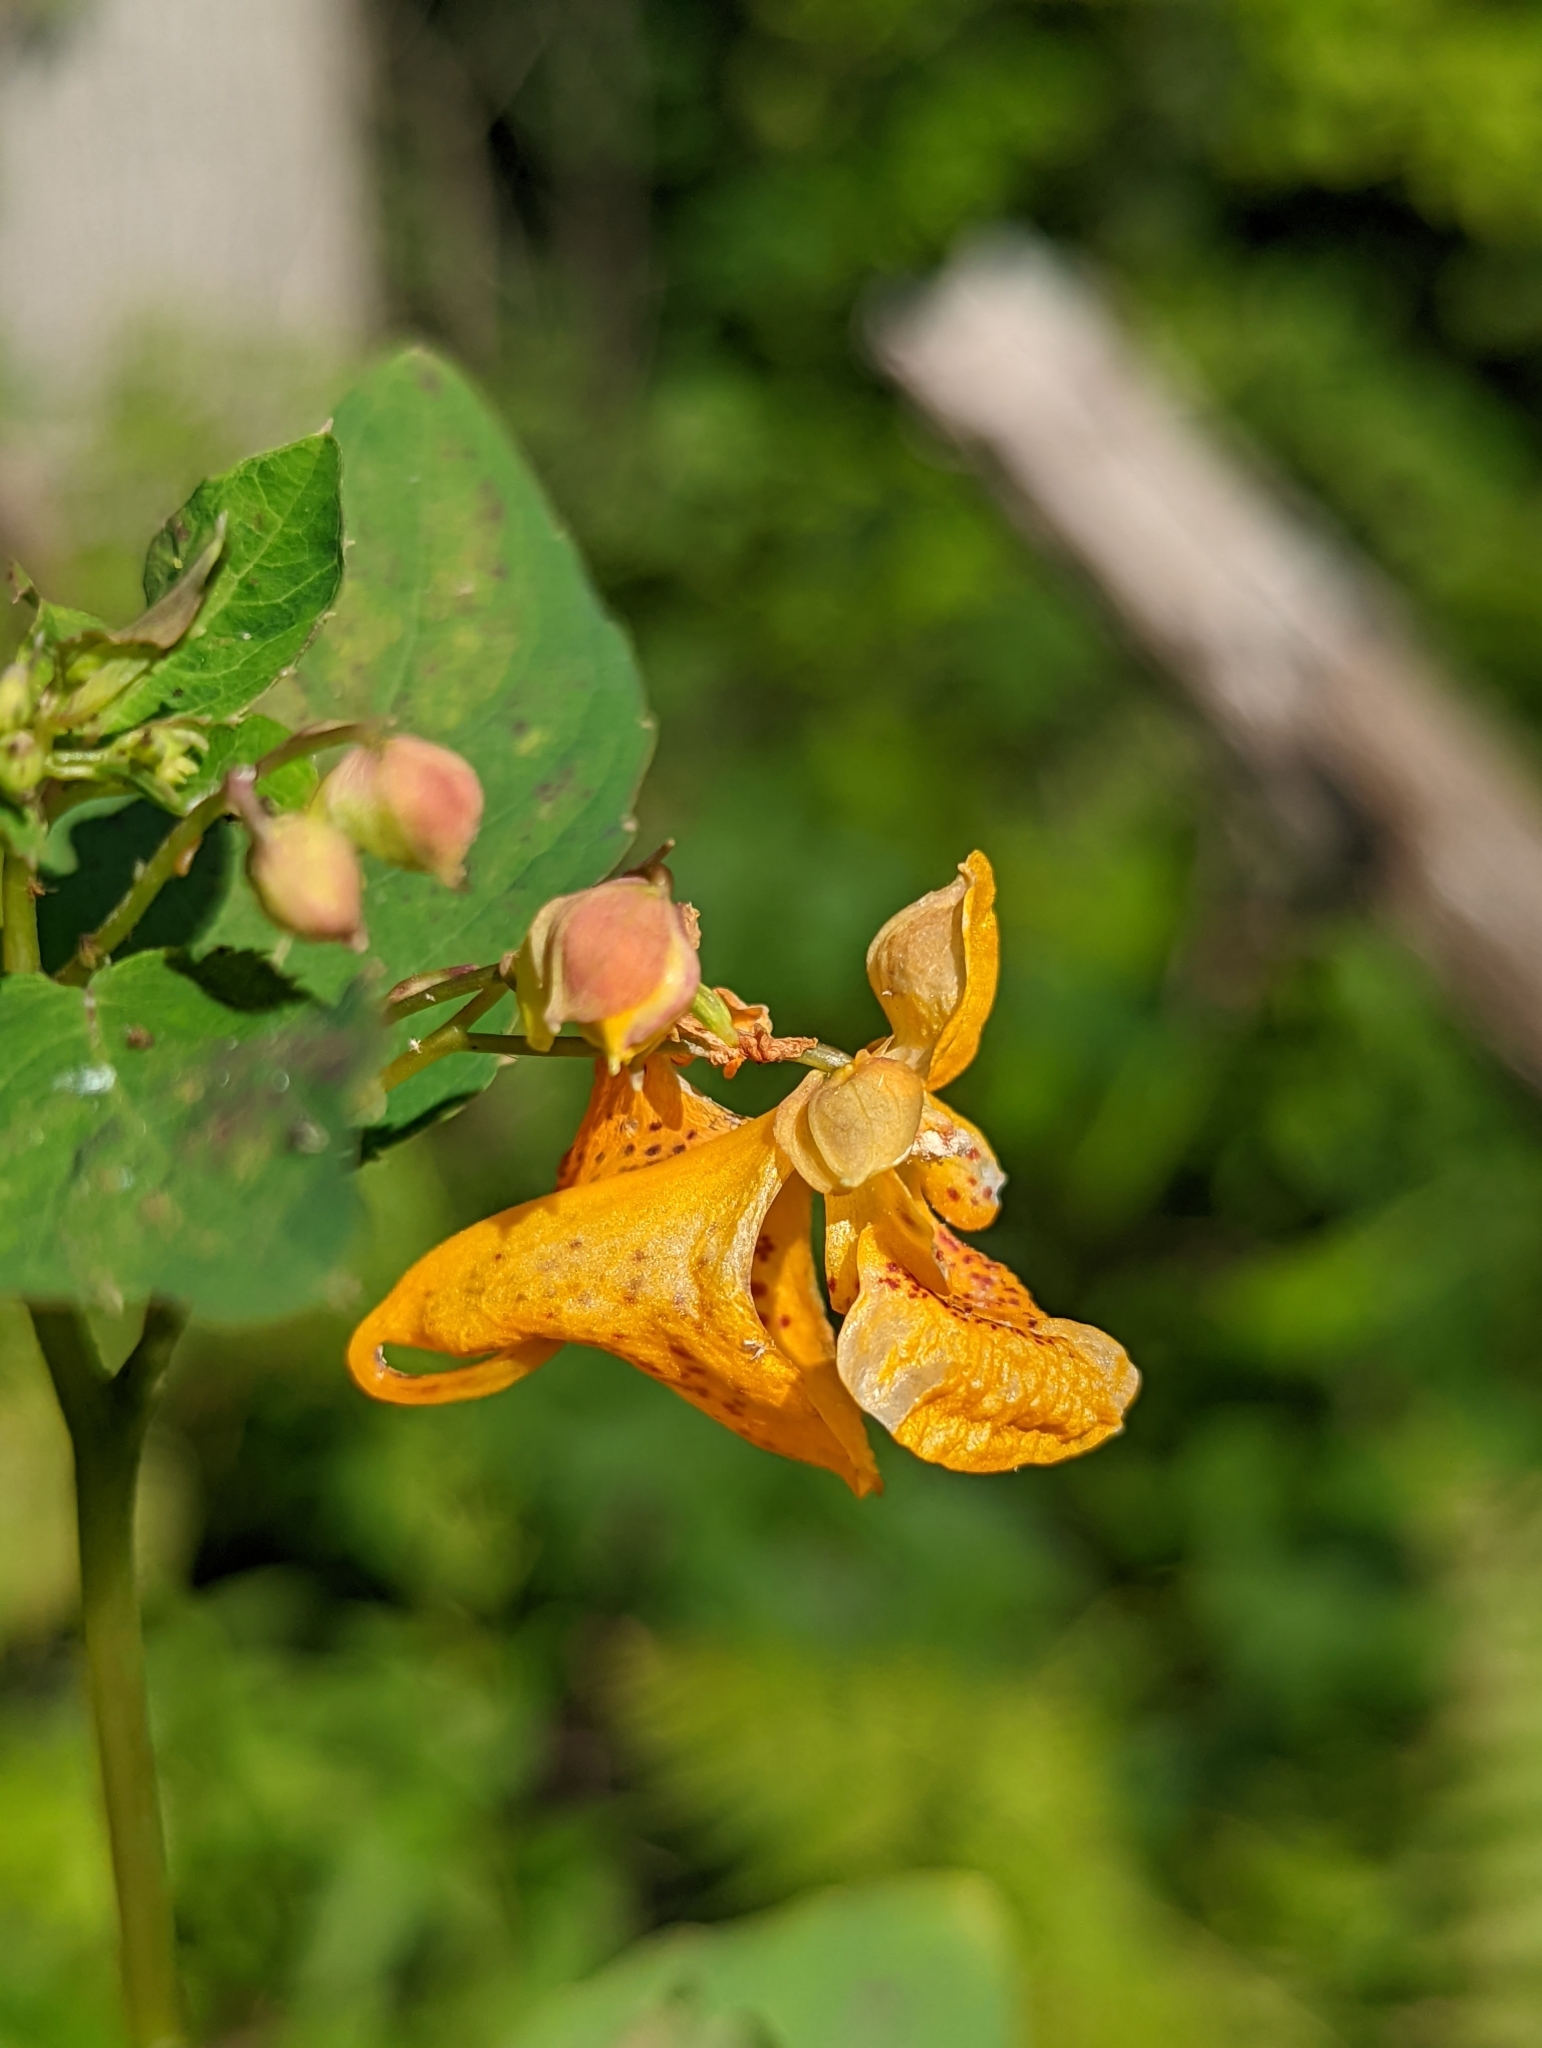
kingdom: Plantae
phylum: Tracheophyta
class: Magnoliopsida
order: Ericales
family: Balsaminaceae
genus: Impatiens
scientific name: Impatiens capensis
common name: Orange balsam
